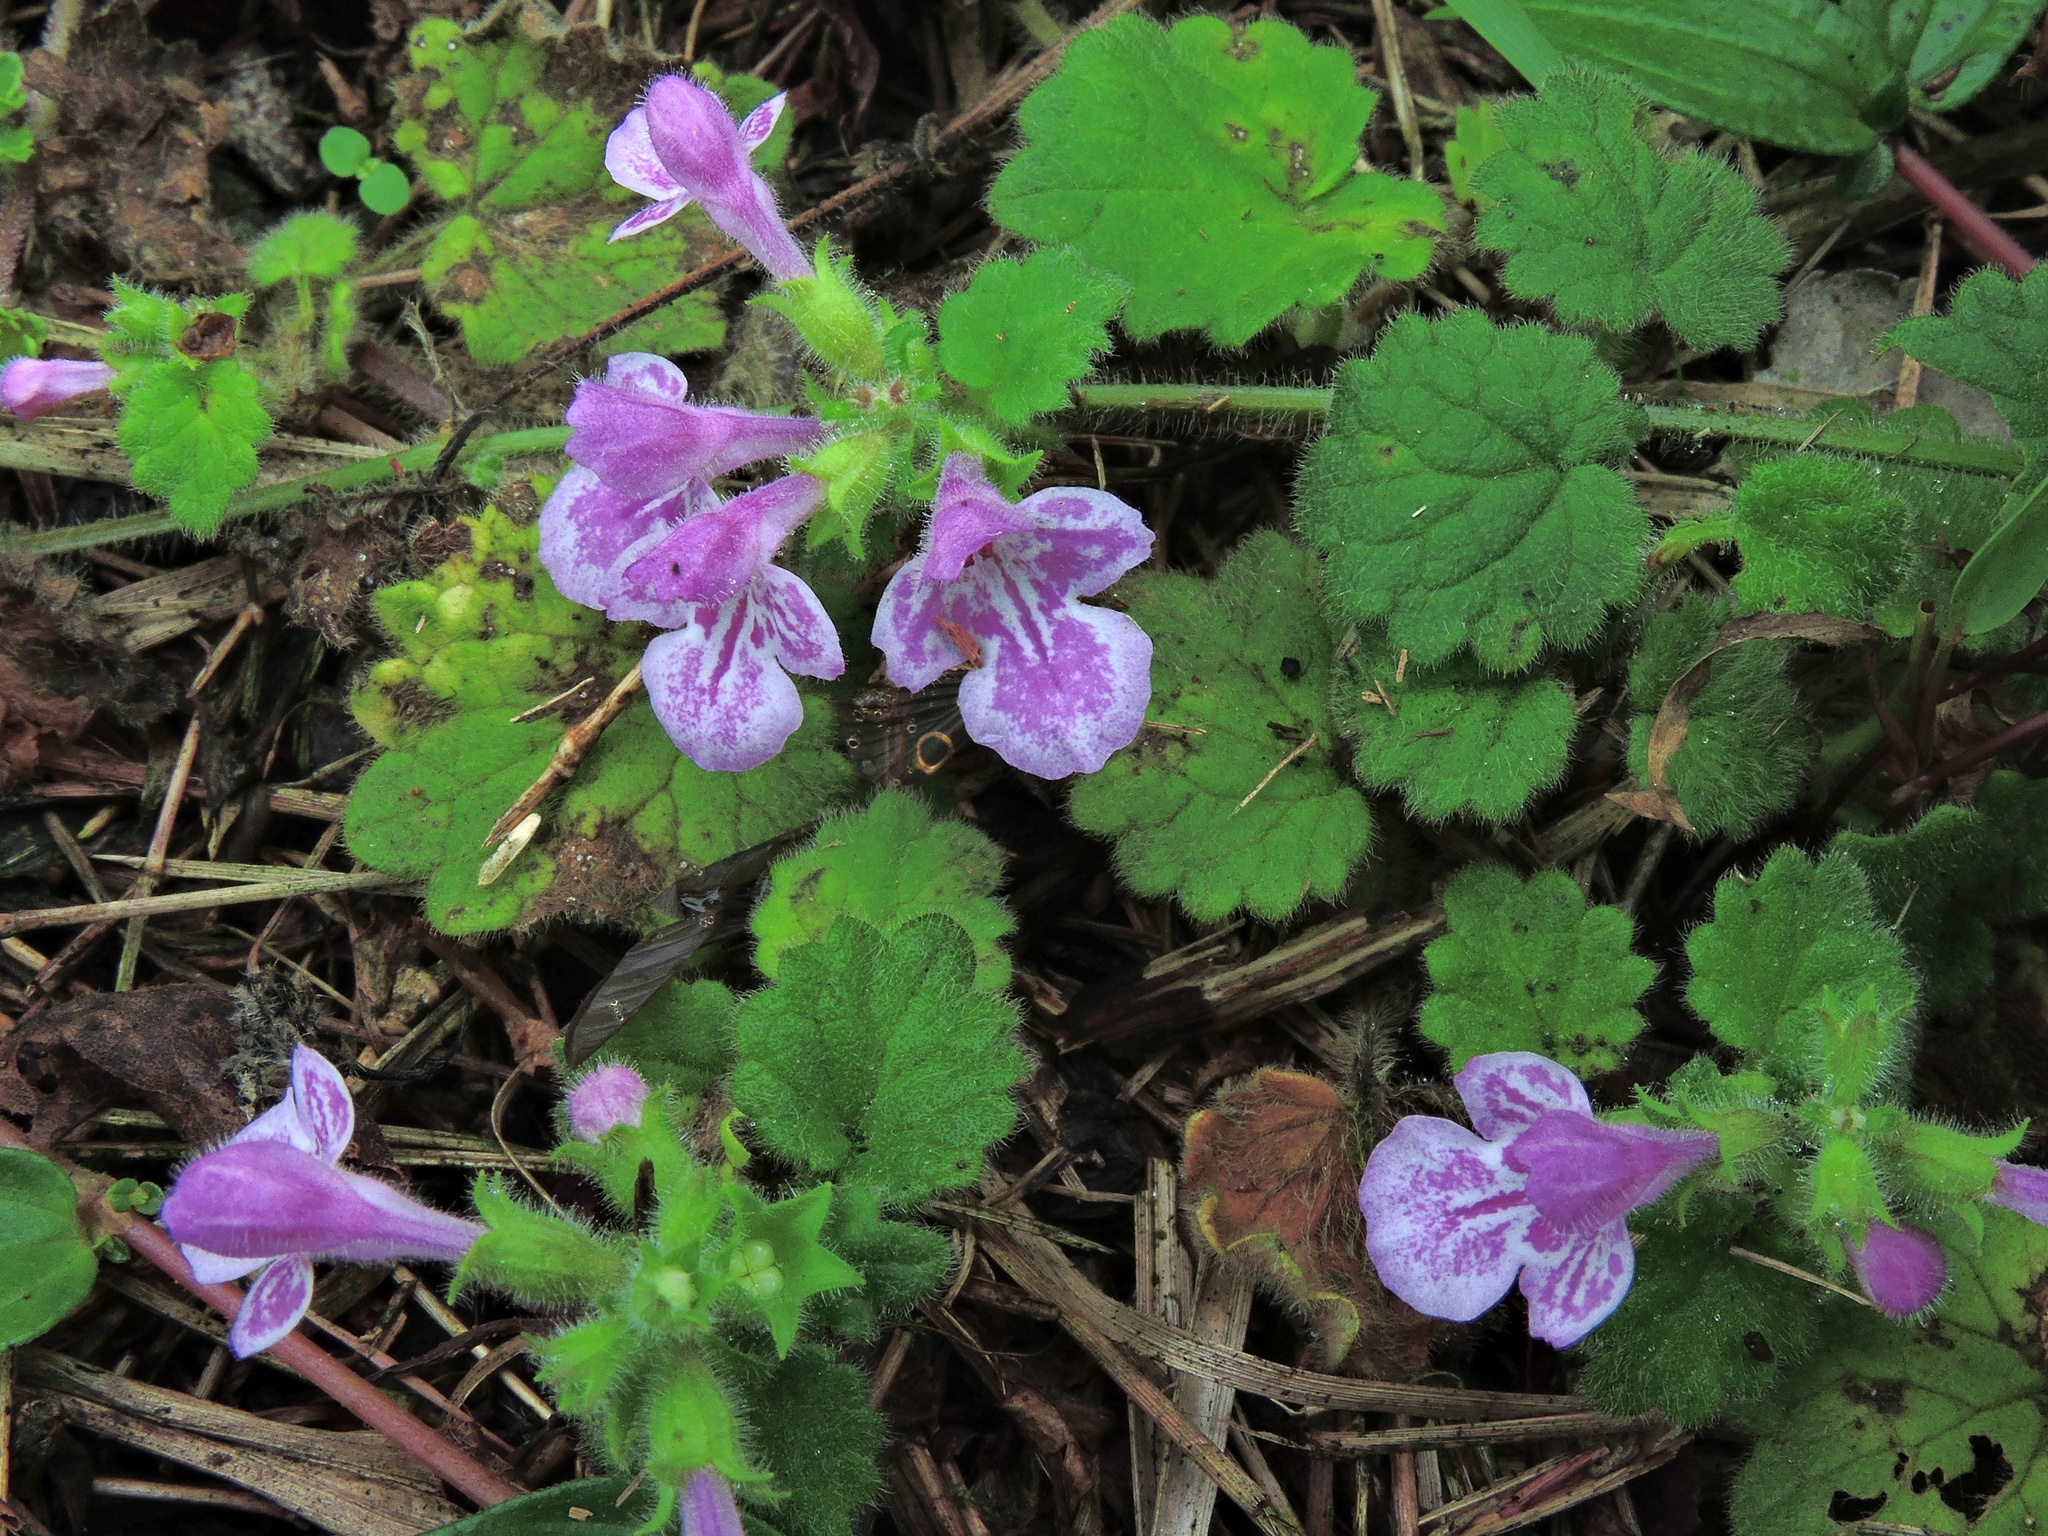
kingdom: Plantae
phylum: Tracheophyta
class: Magnoliopsida
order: Lamiales
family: Lamiaceae
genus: Suzukia
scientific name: Suzukia shikikunensis
